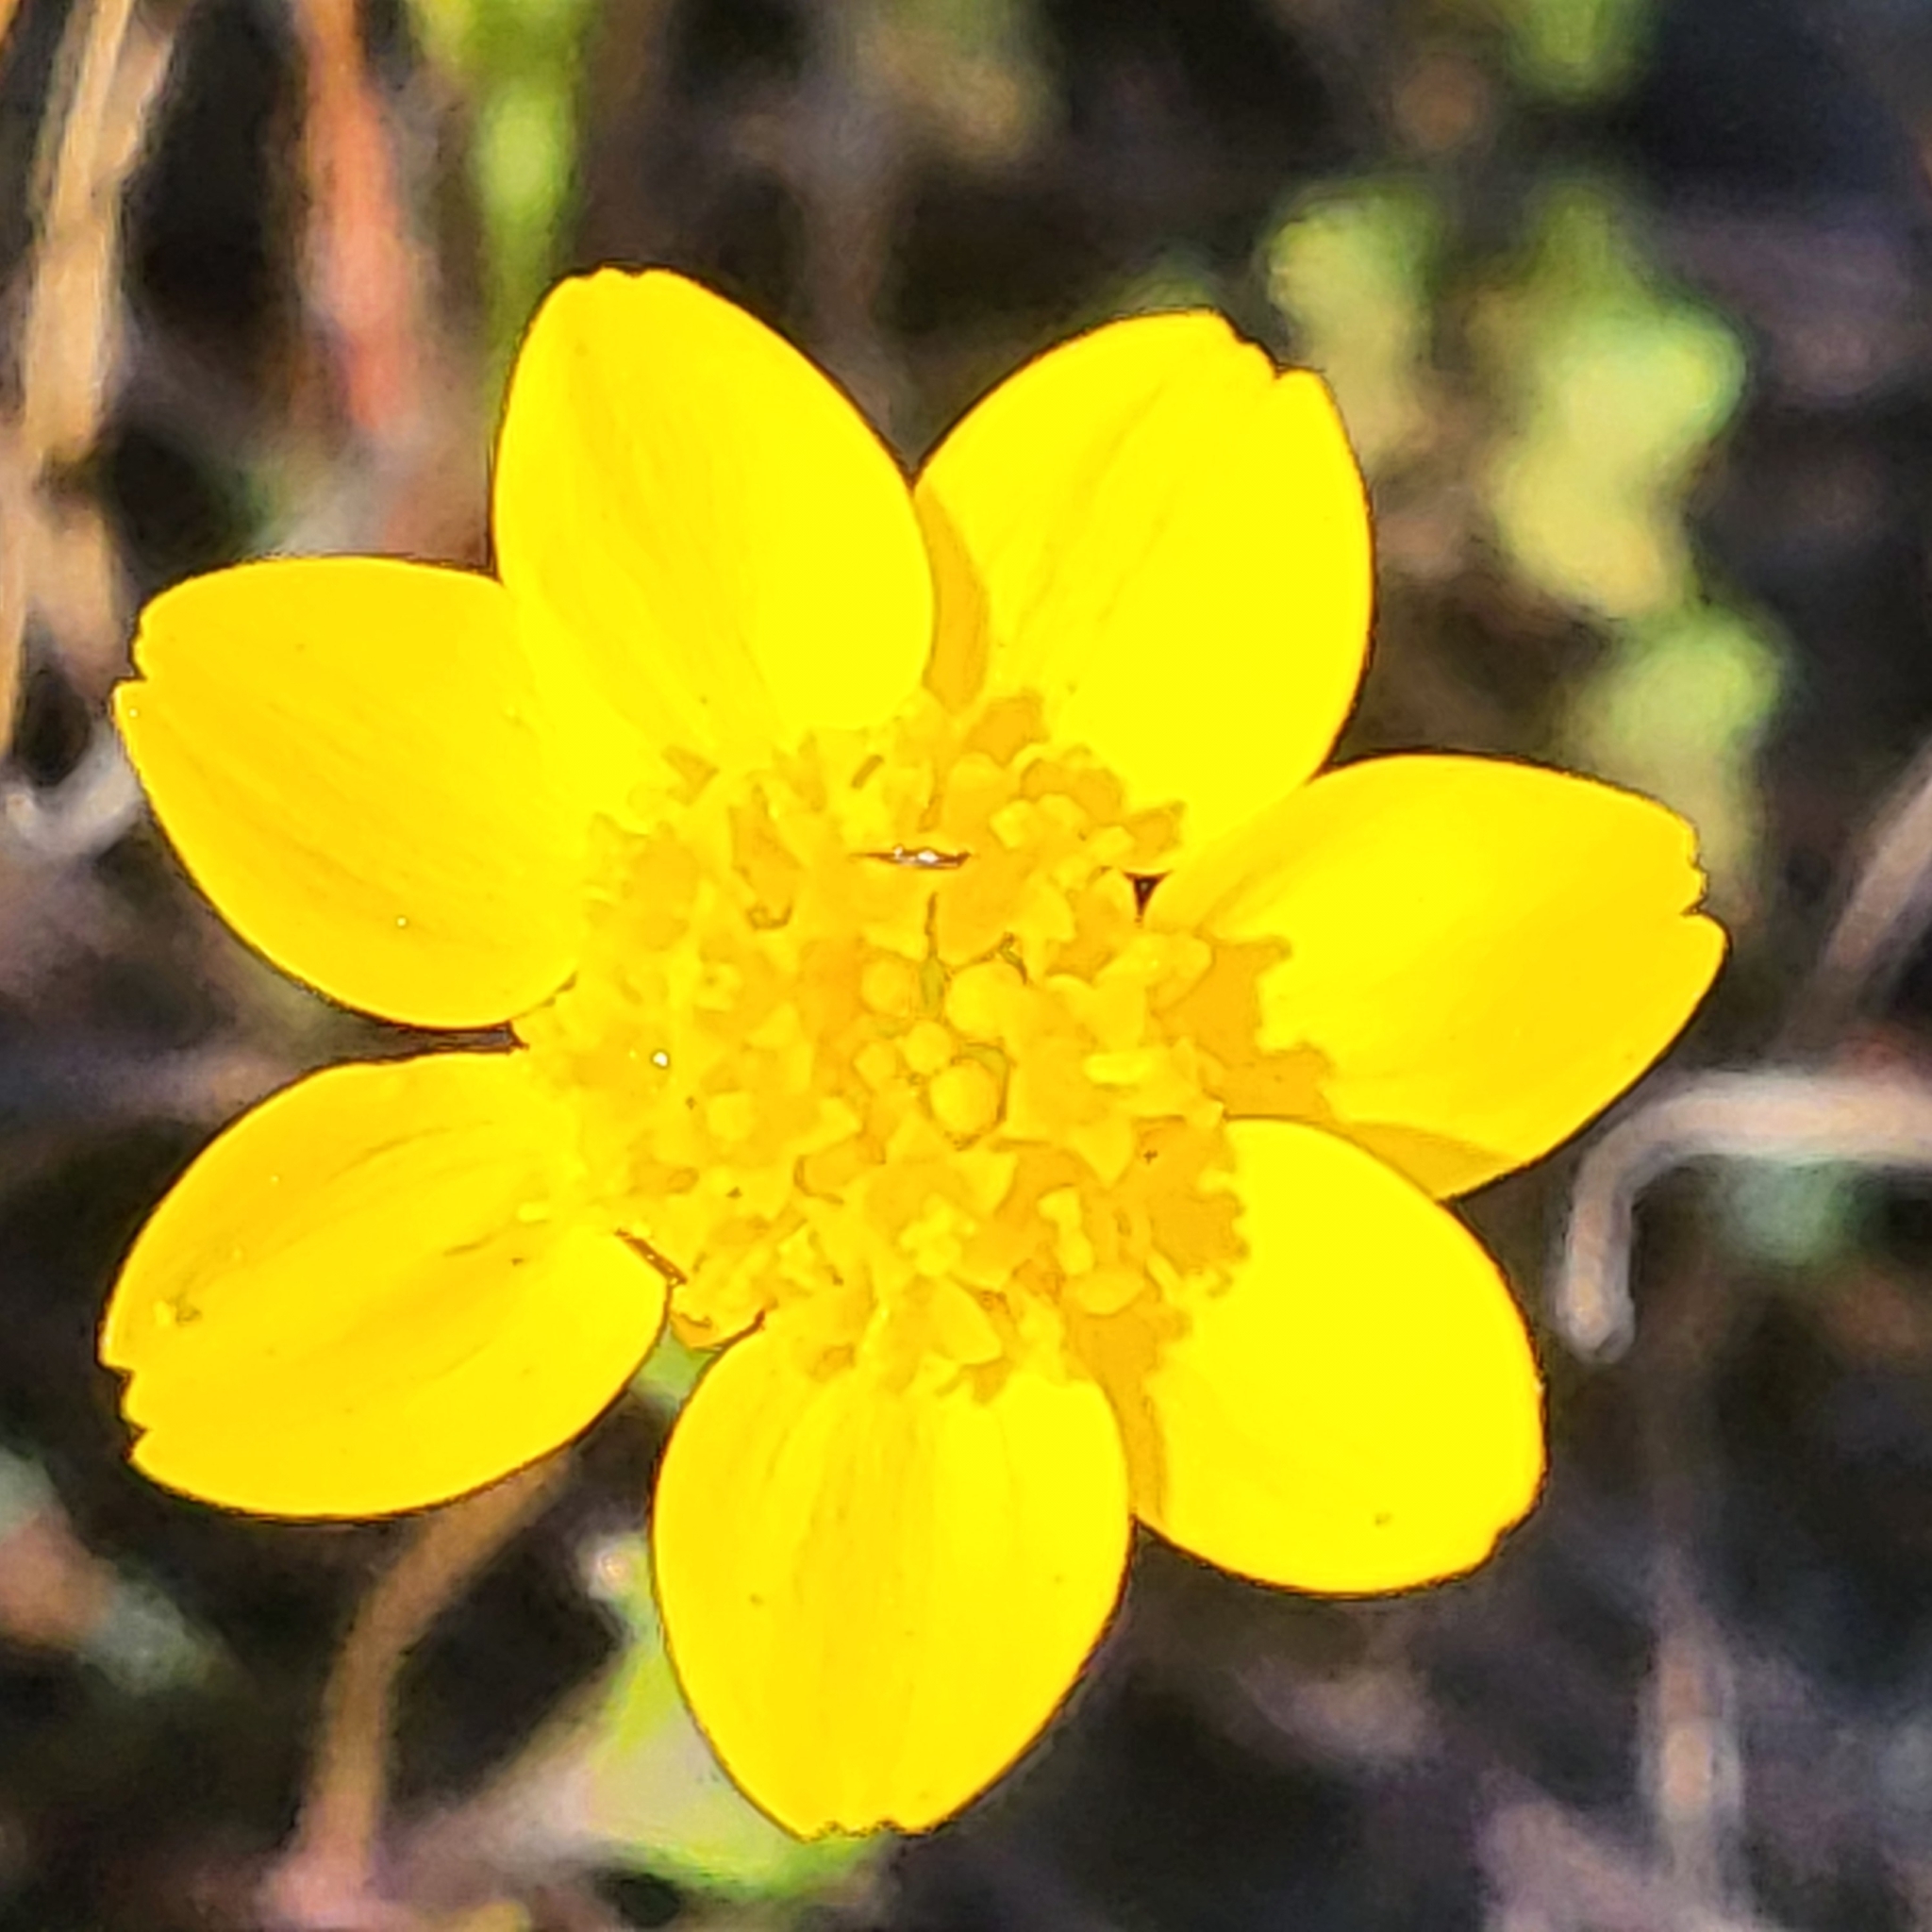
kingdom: Plantae
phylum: Tracheophyta
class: Magnoliopsida
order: Asterales
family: Asteraceae
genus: Lasthenia
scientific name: Lasthenia californica
